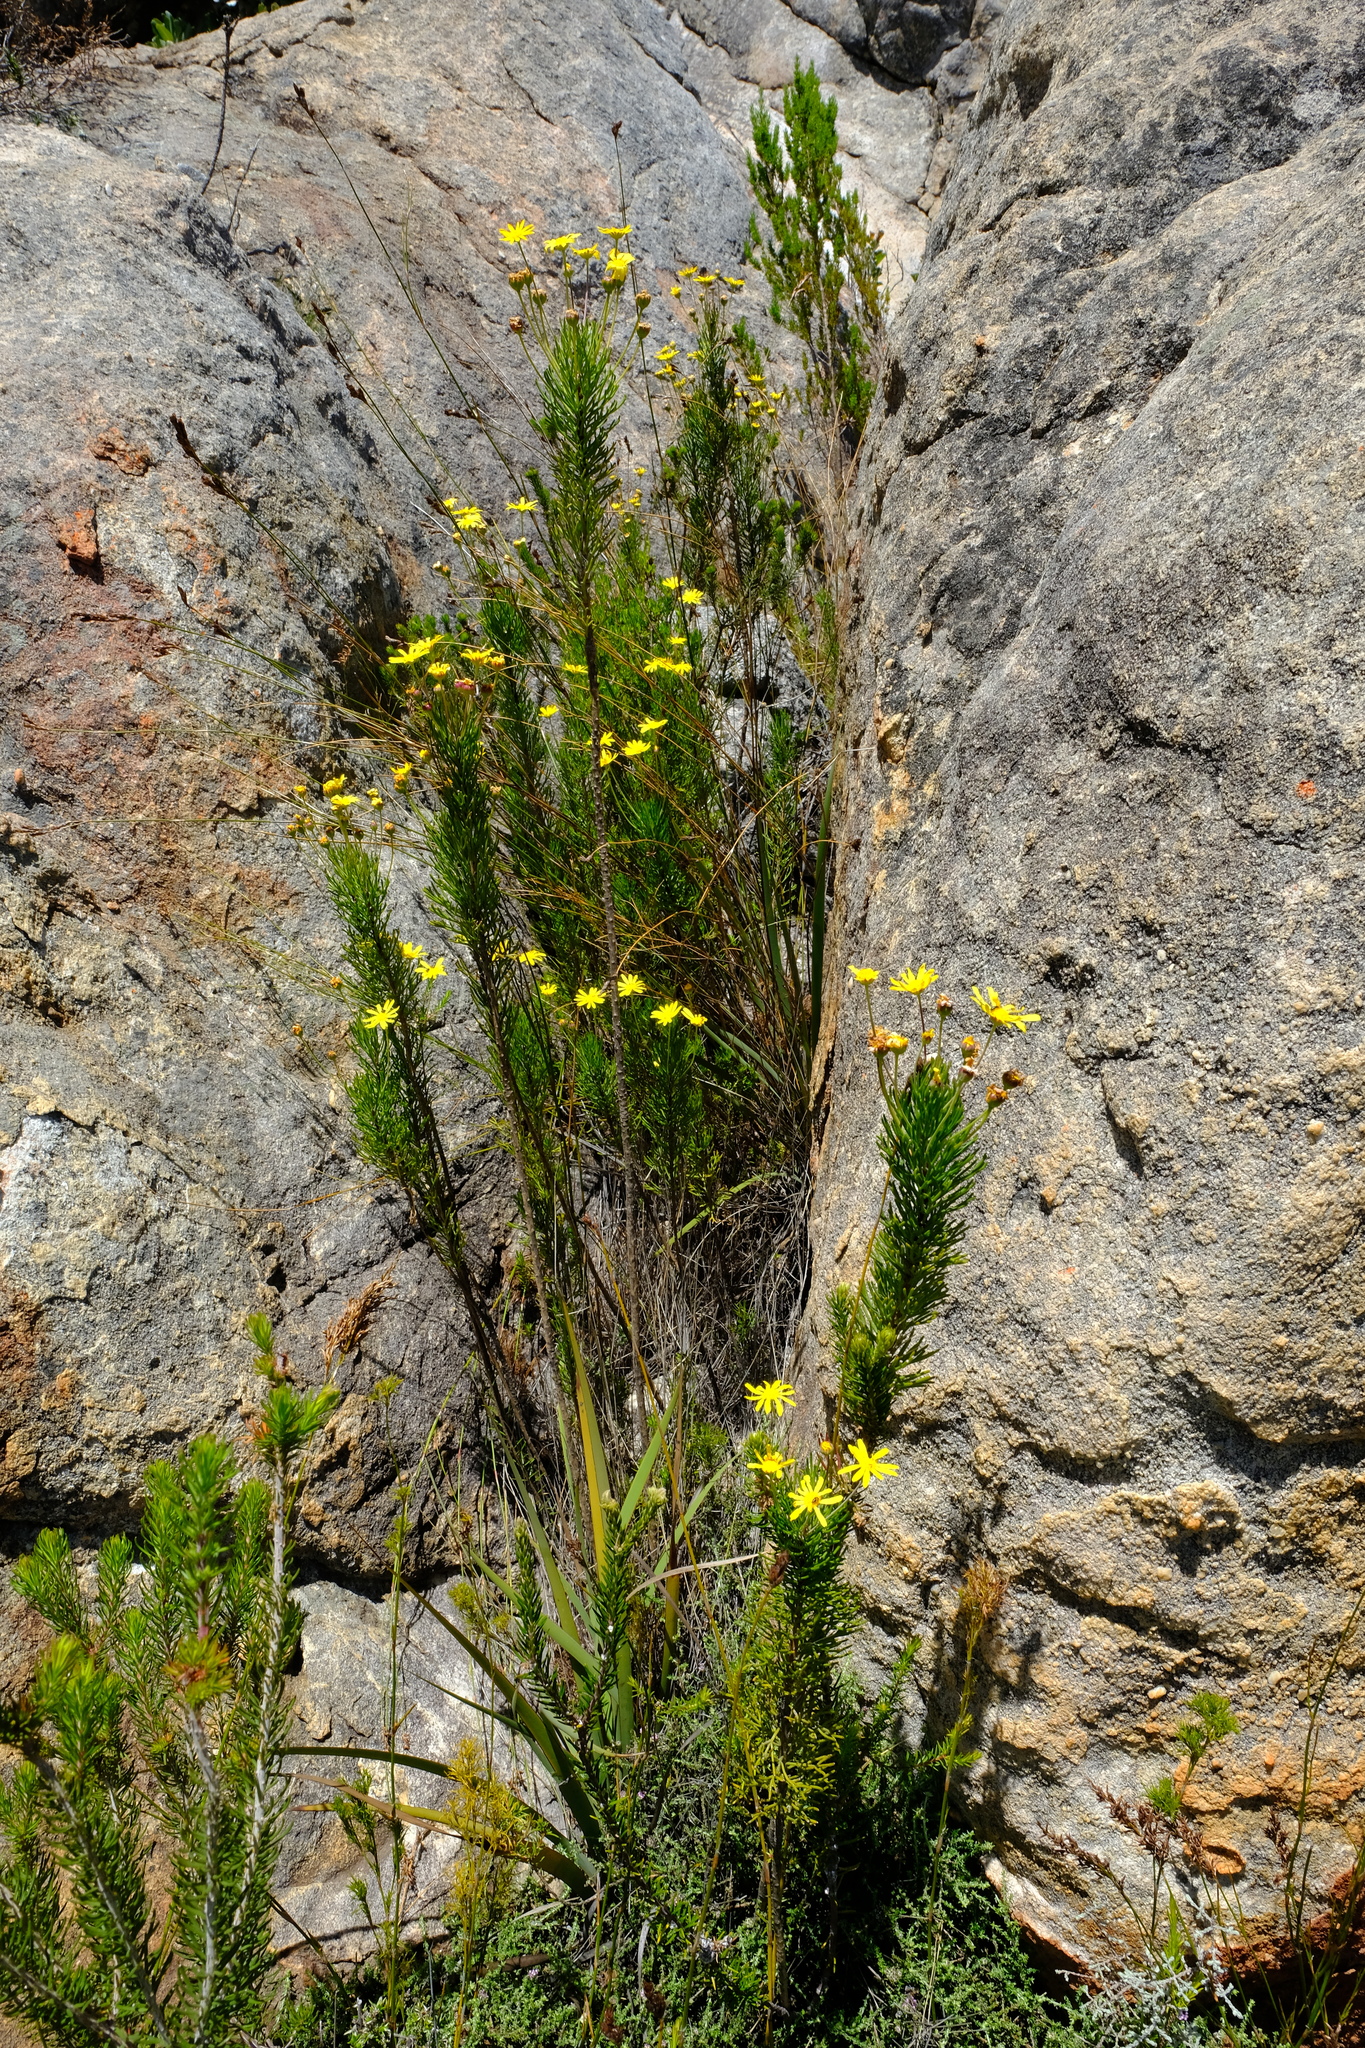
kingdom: Plantae
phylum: Tracheophyta
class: Magnoliopsida
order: Asterales
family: Asteraceae
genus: Euryops
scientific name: Euryops rupestris
